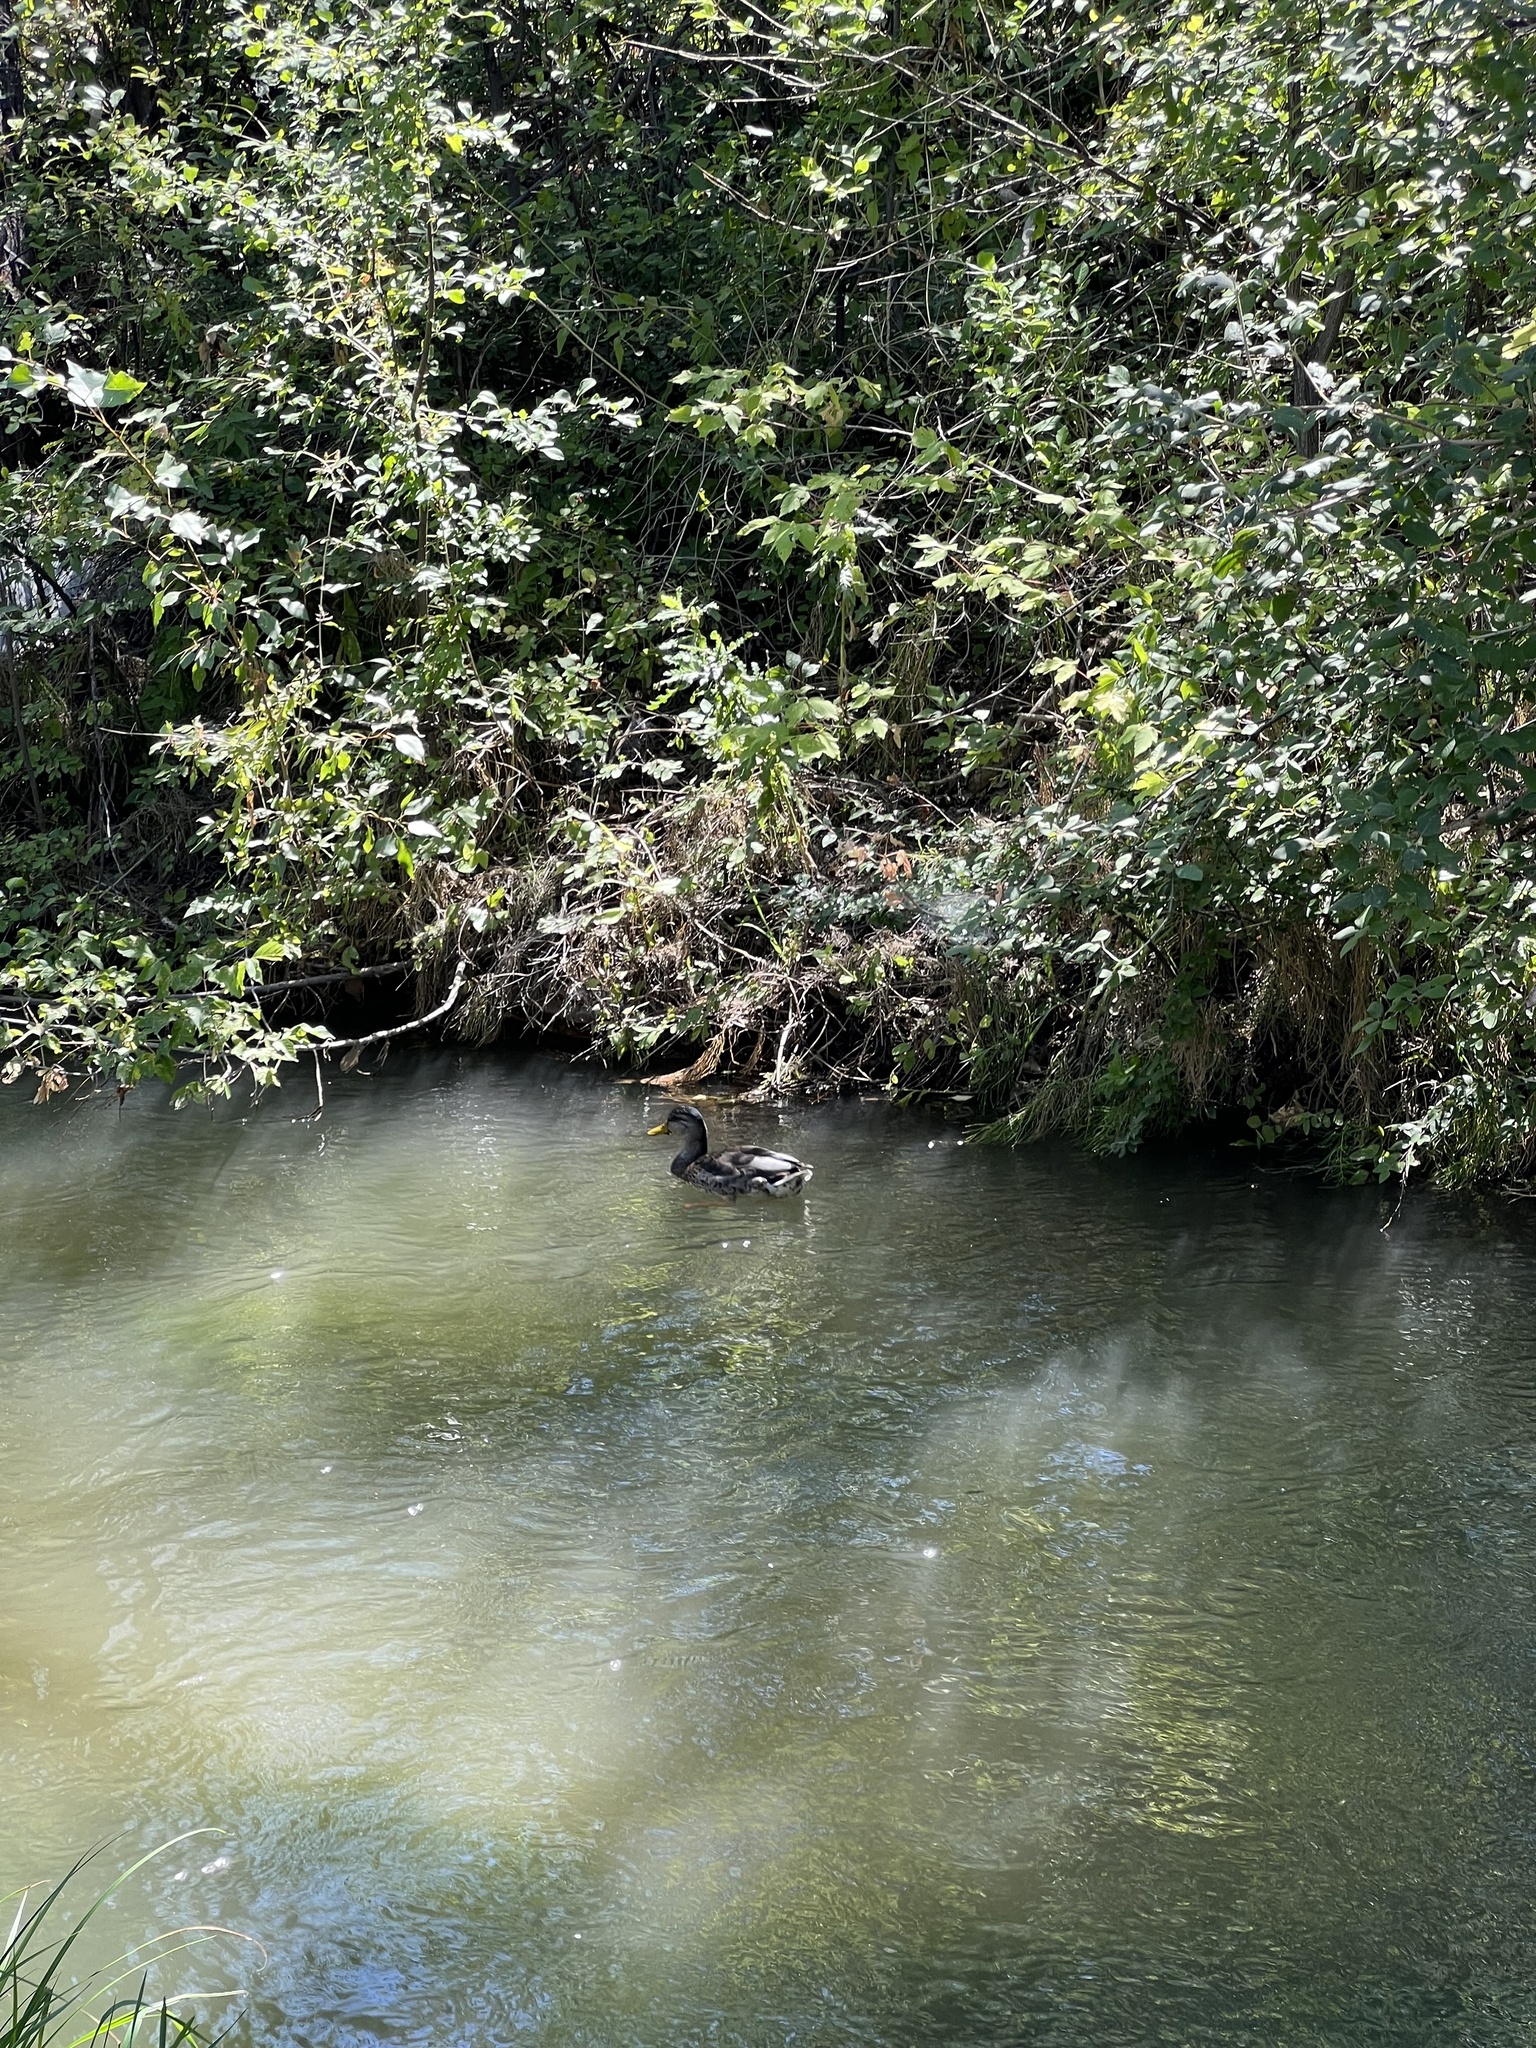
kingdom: Animalia
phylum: Chordata
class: Aves
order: Anseriformes
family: Anatidae
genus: Anas
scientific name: Anas platyrhynchos
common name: Mallard
